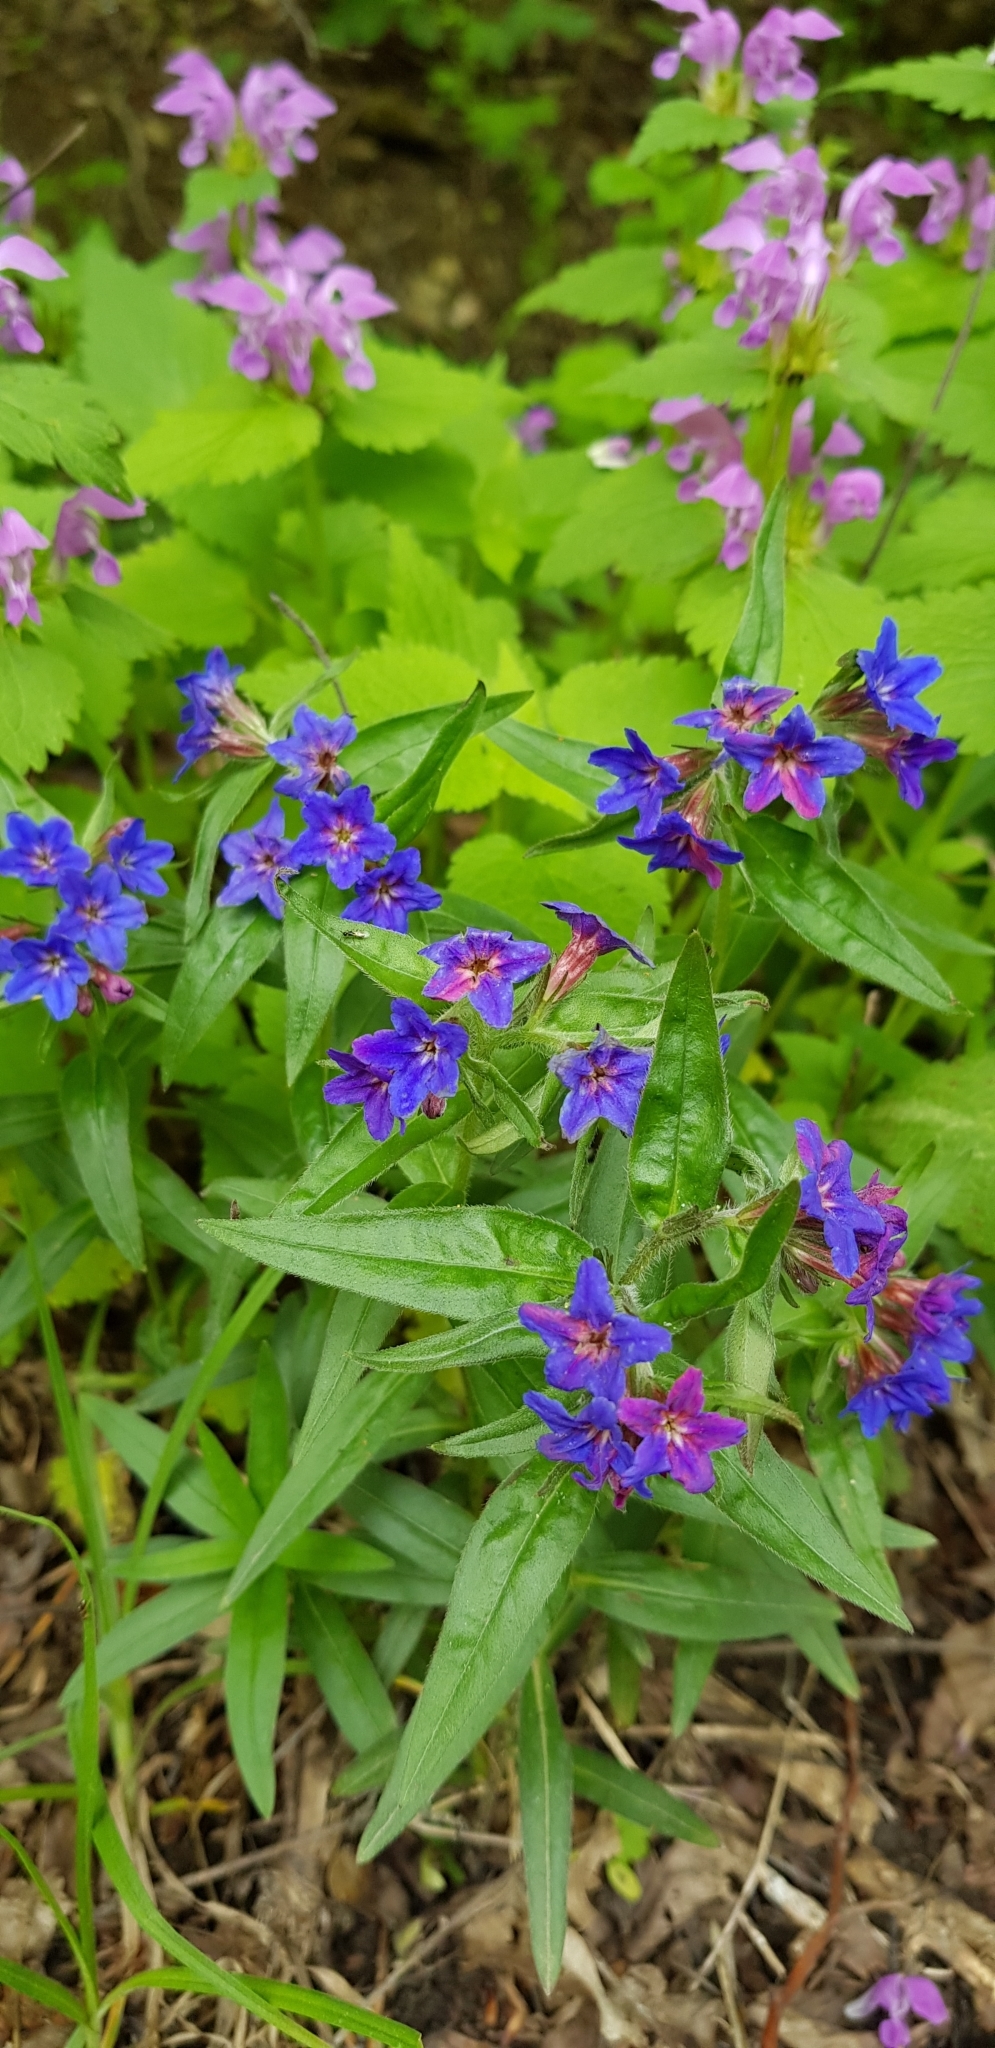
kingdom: Plantae
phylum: Tracheophyta
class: Magnoliopsida
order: Boraginales
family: Boraginaceae
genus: Aegonychon
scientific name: Aegonychon purpurocaeruleum
